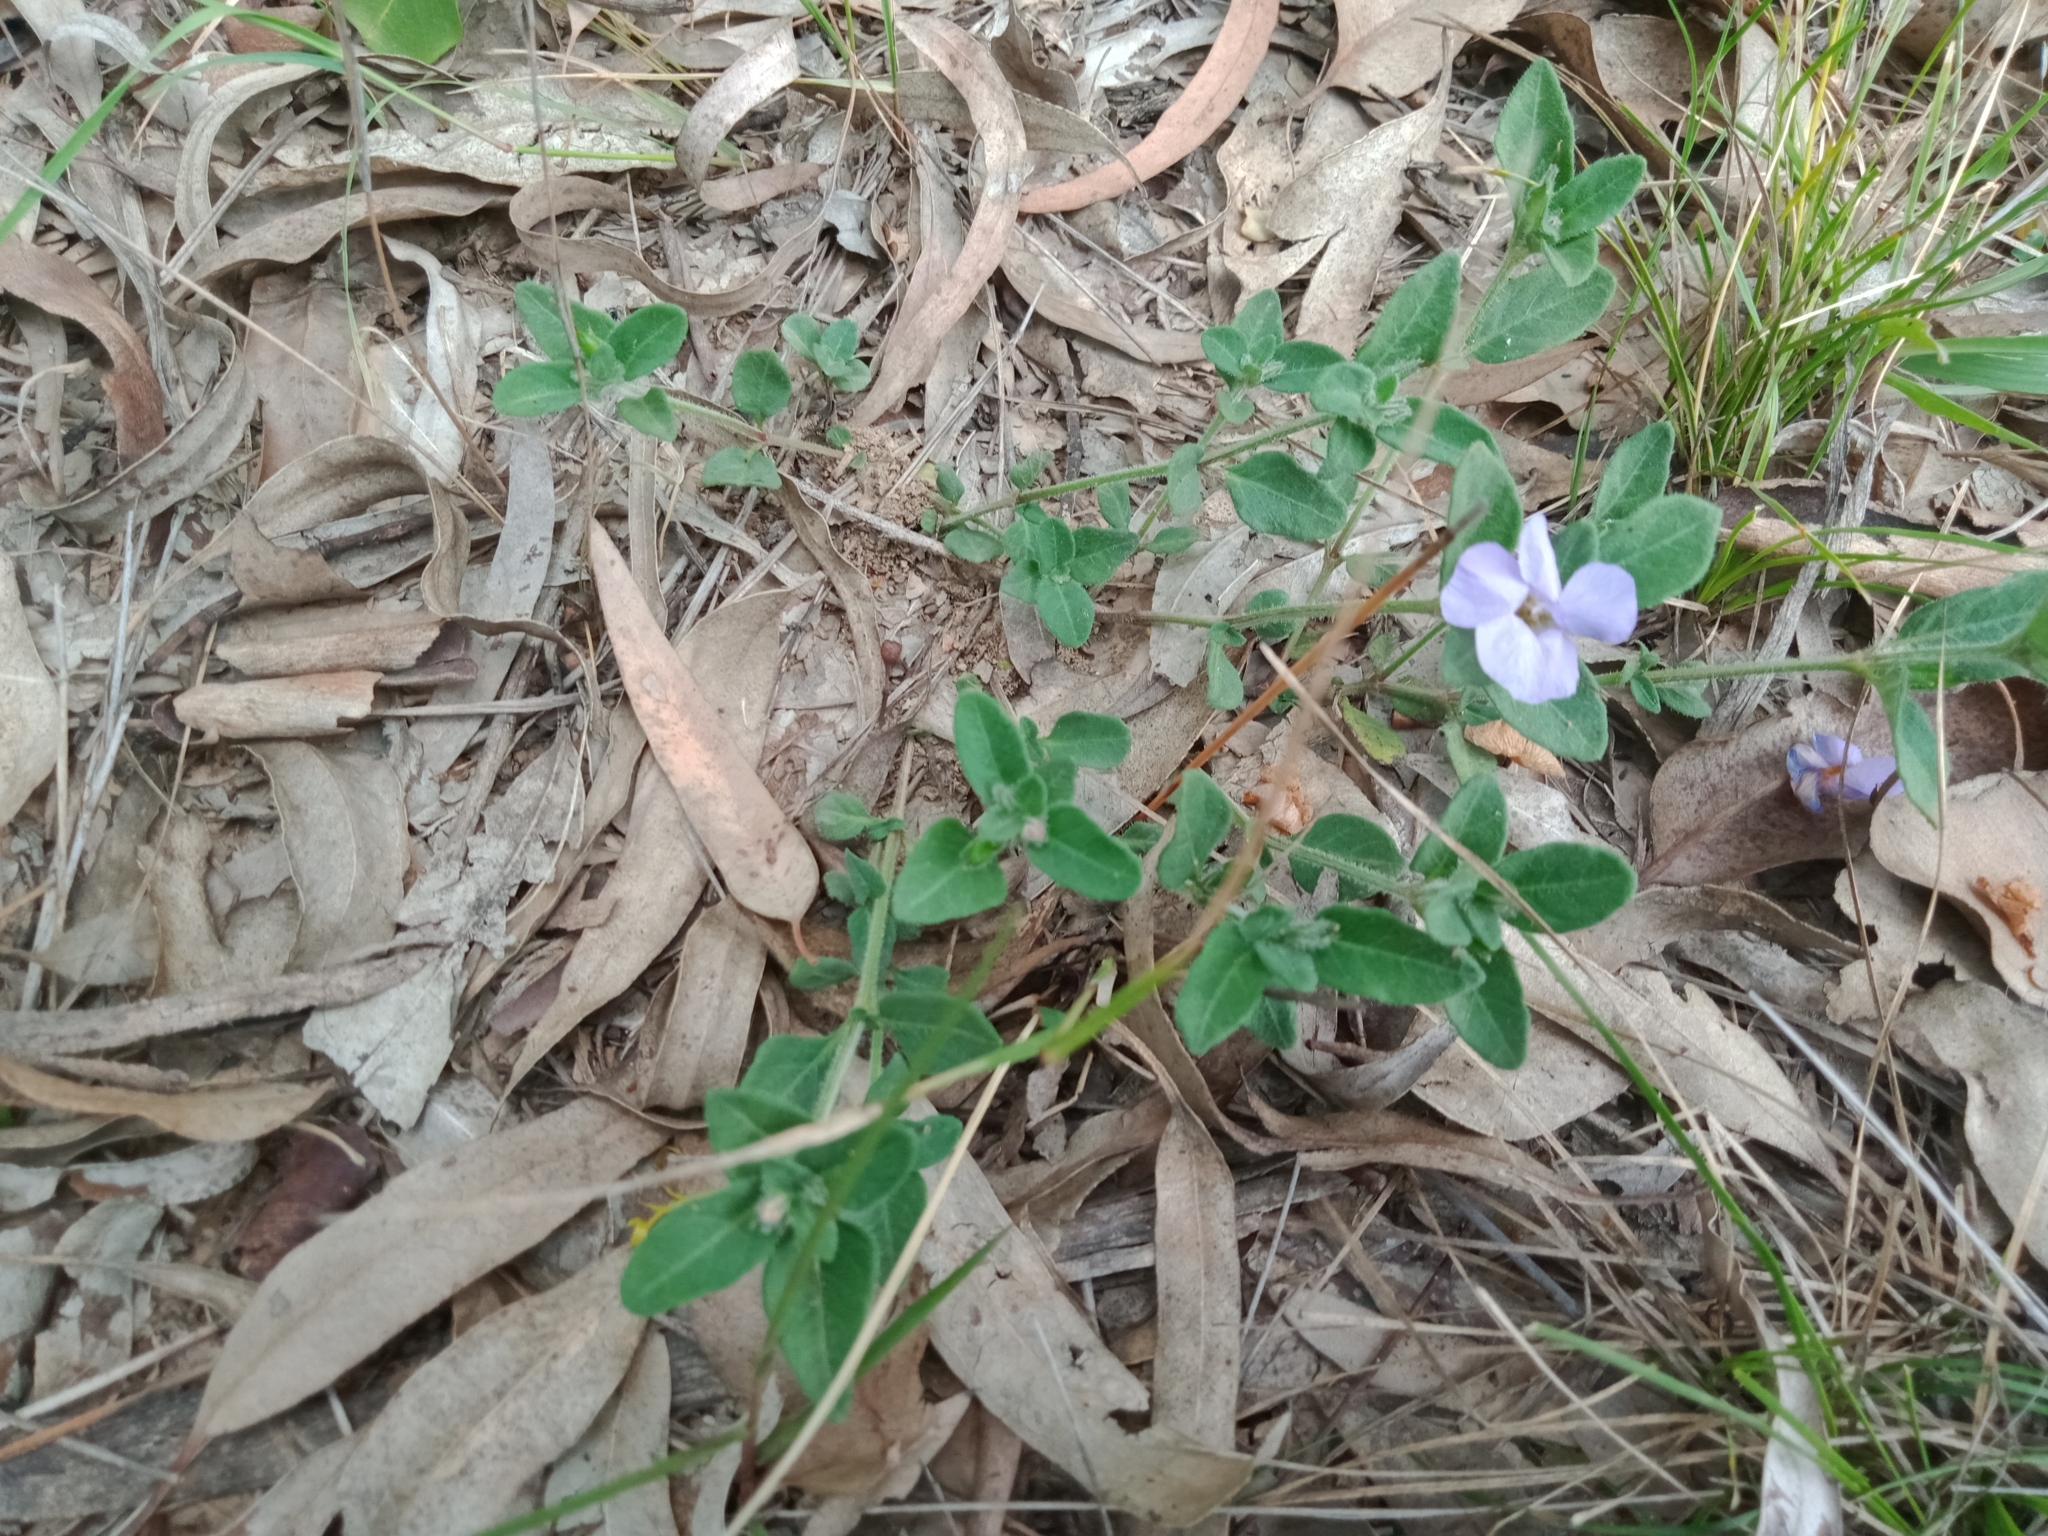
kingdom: Plantae
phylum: Tracheophyta
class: Magnoliopsida
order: Lamiales
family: Acanthaceae
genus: Pseuderanthemum
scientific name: Pseuderanthemum variabile
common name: Night and afternoon
